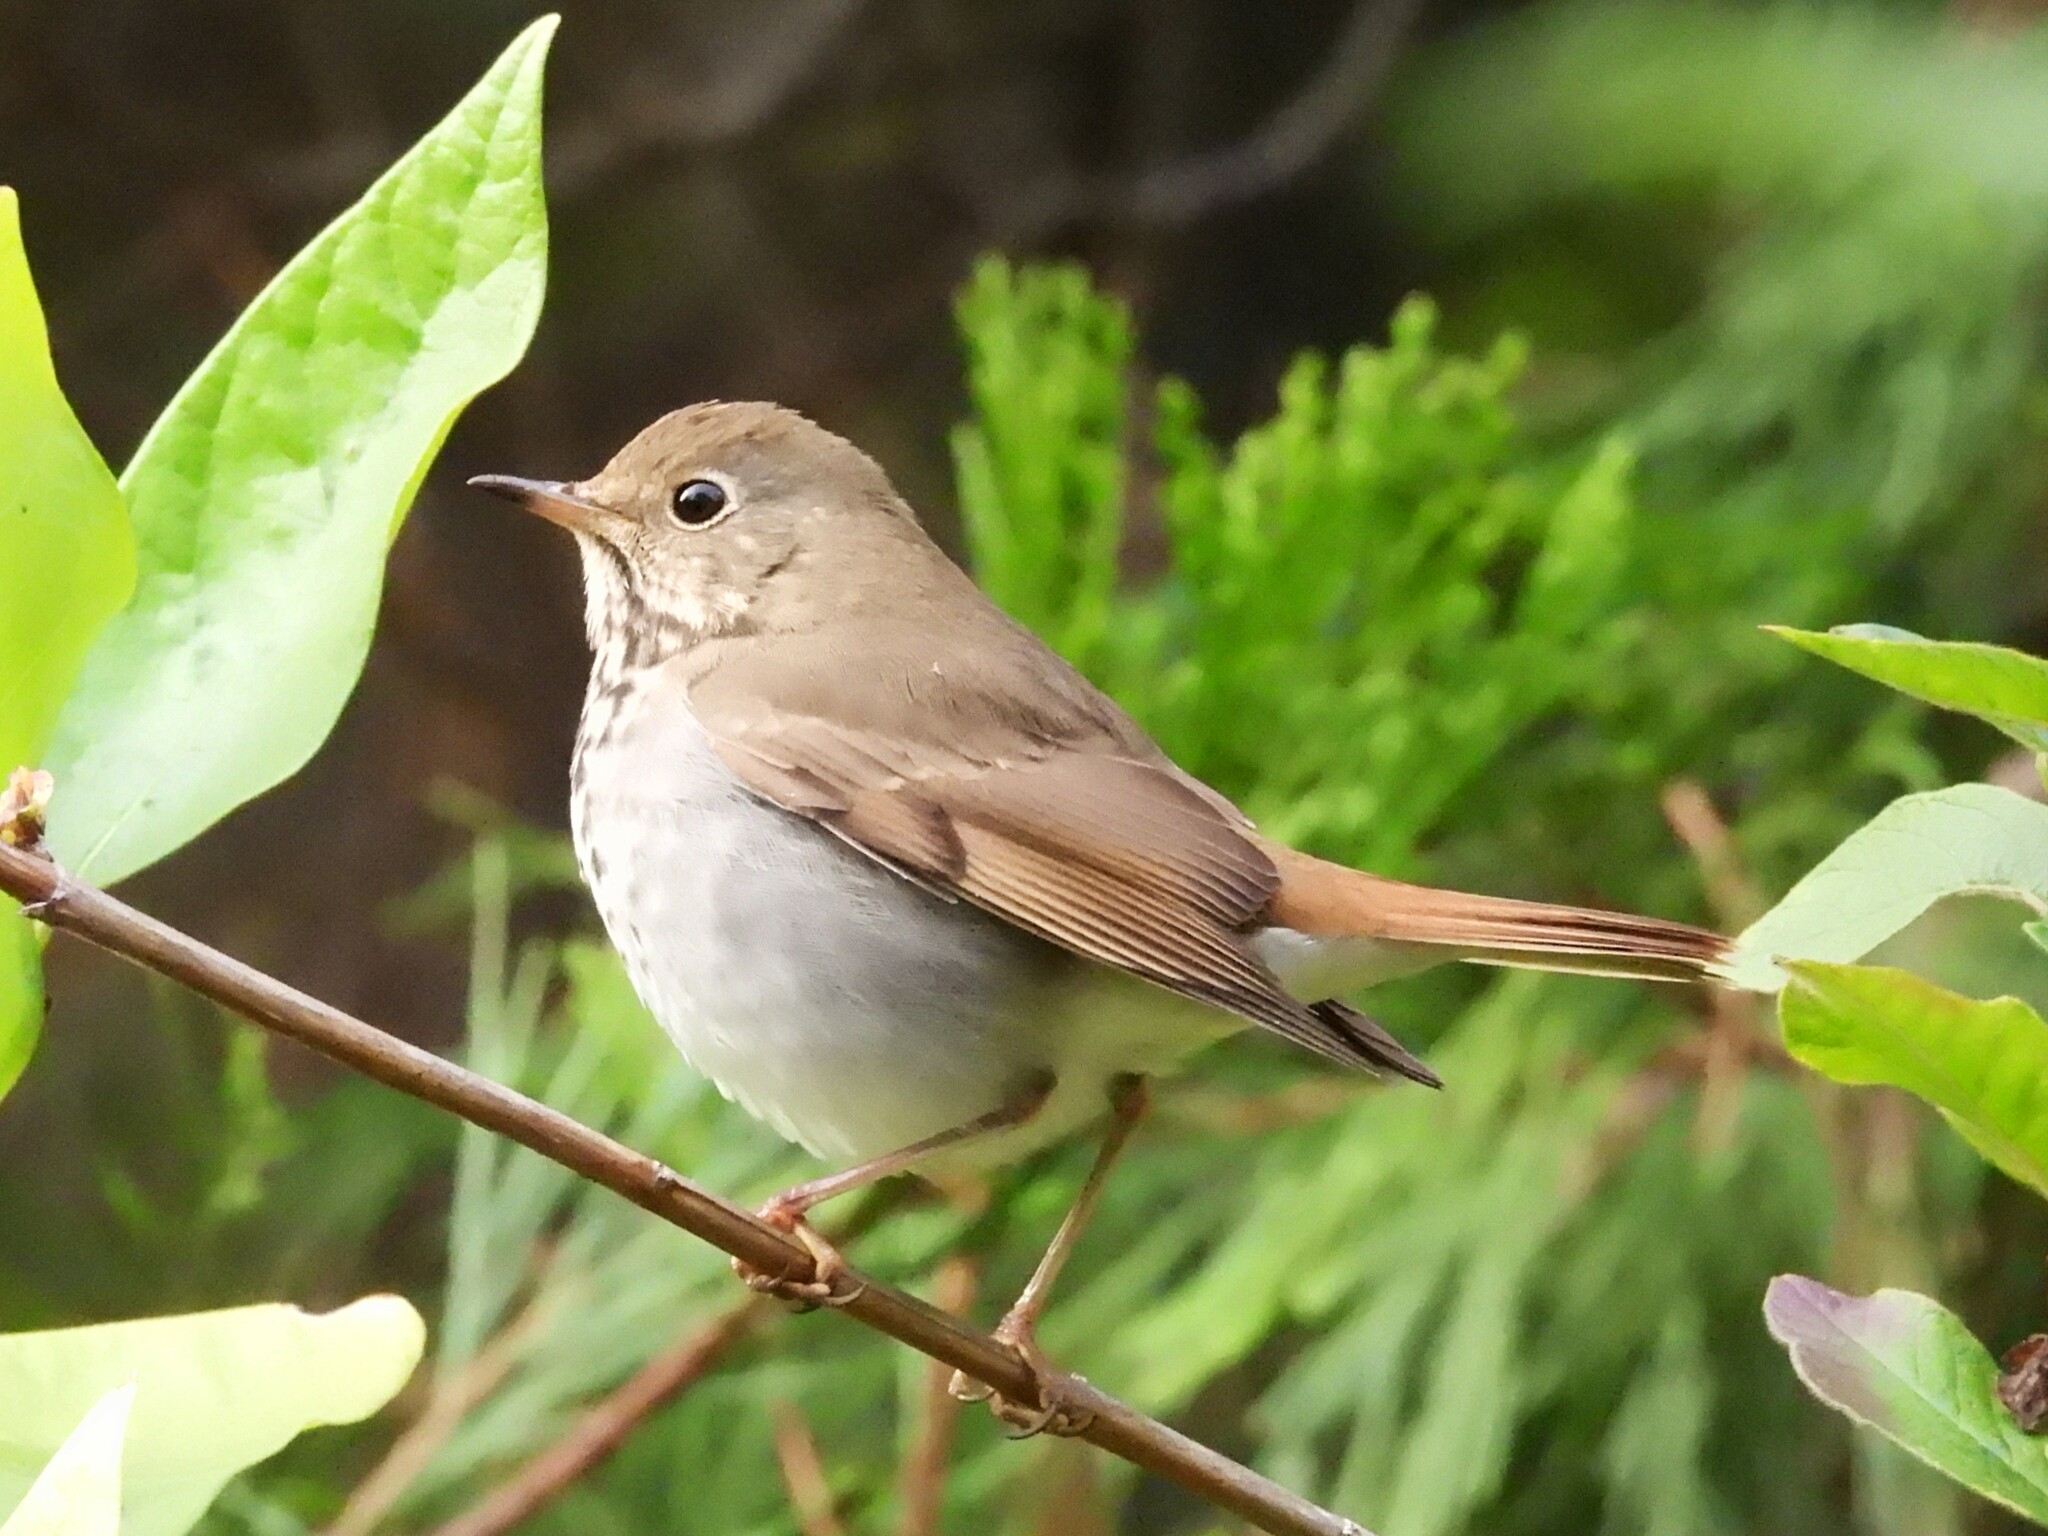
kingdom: Animalia
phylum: Chordata
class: Aves
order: Passeriformes
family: Turdidae
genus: Catharus
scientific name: Catharus guttatus
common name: Hermit thrush
